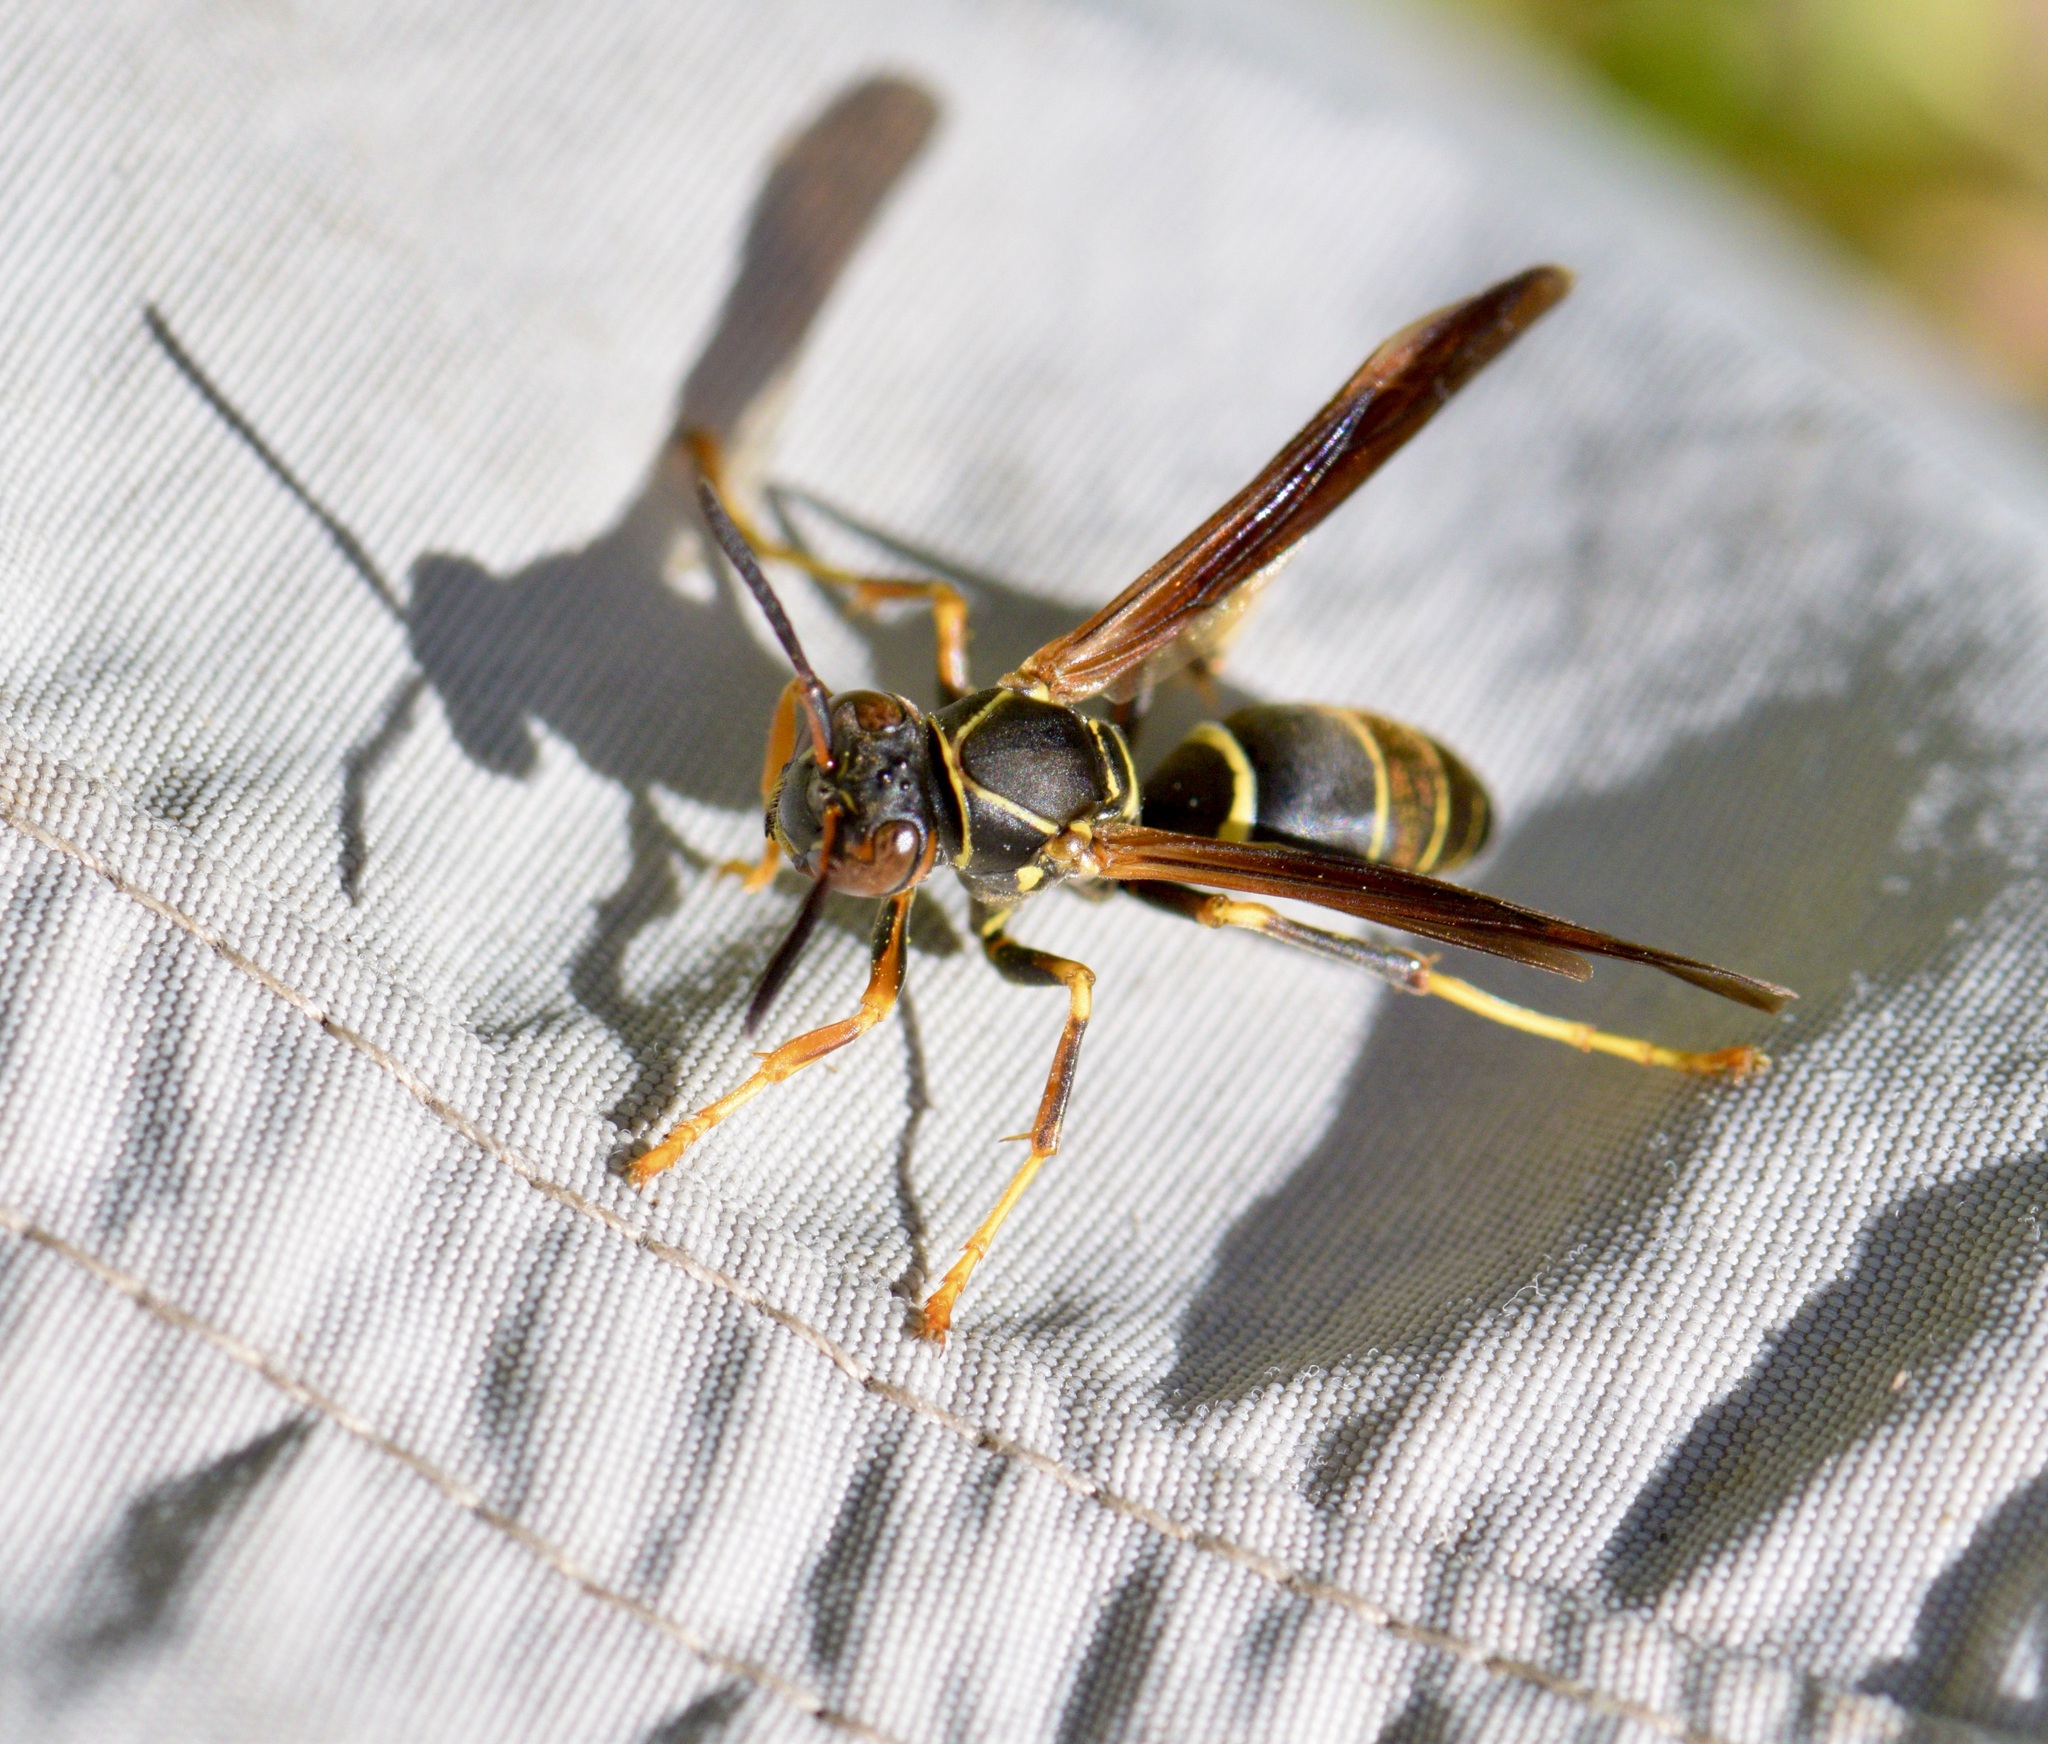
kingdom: Animalia
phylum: Arthropoda
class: Insecta
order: Hymenoptera
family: Eumenidae
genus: Polistes
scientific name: Polistes fuscatus
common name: Dark paper wasp
